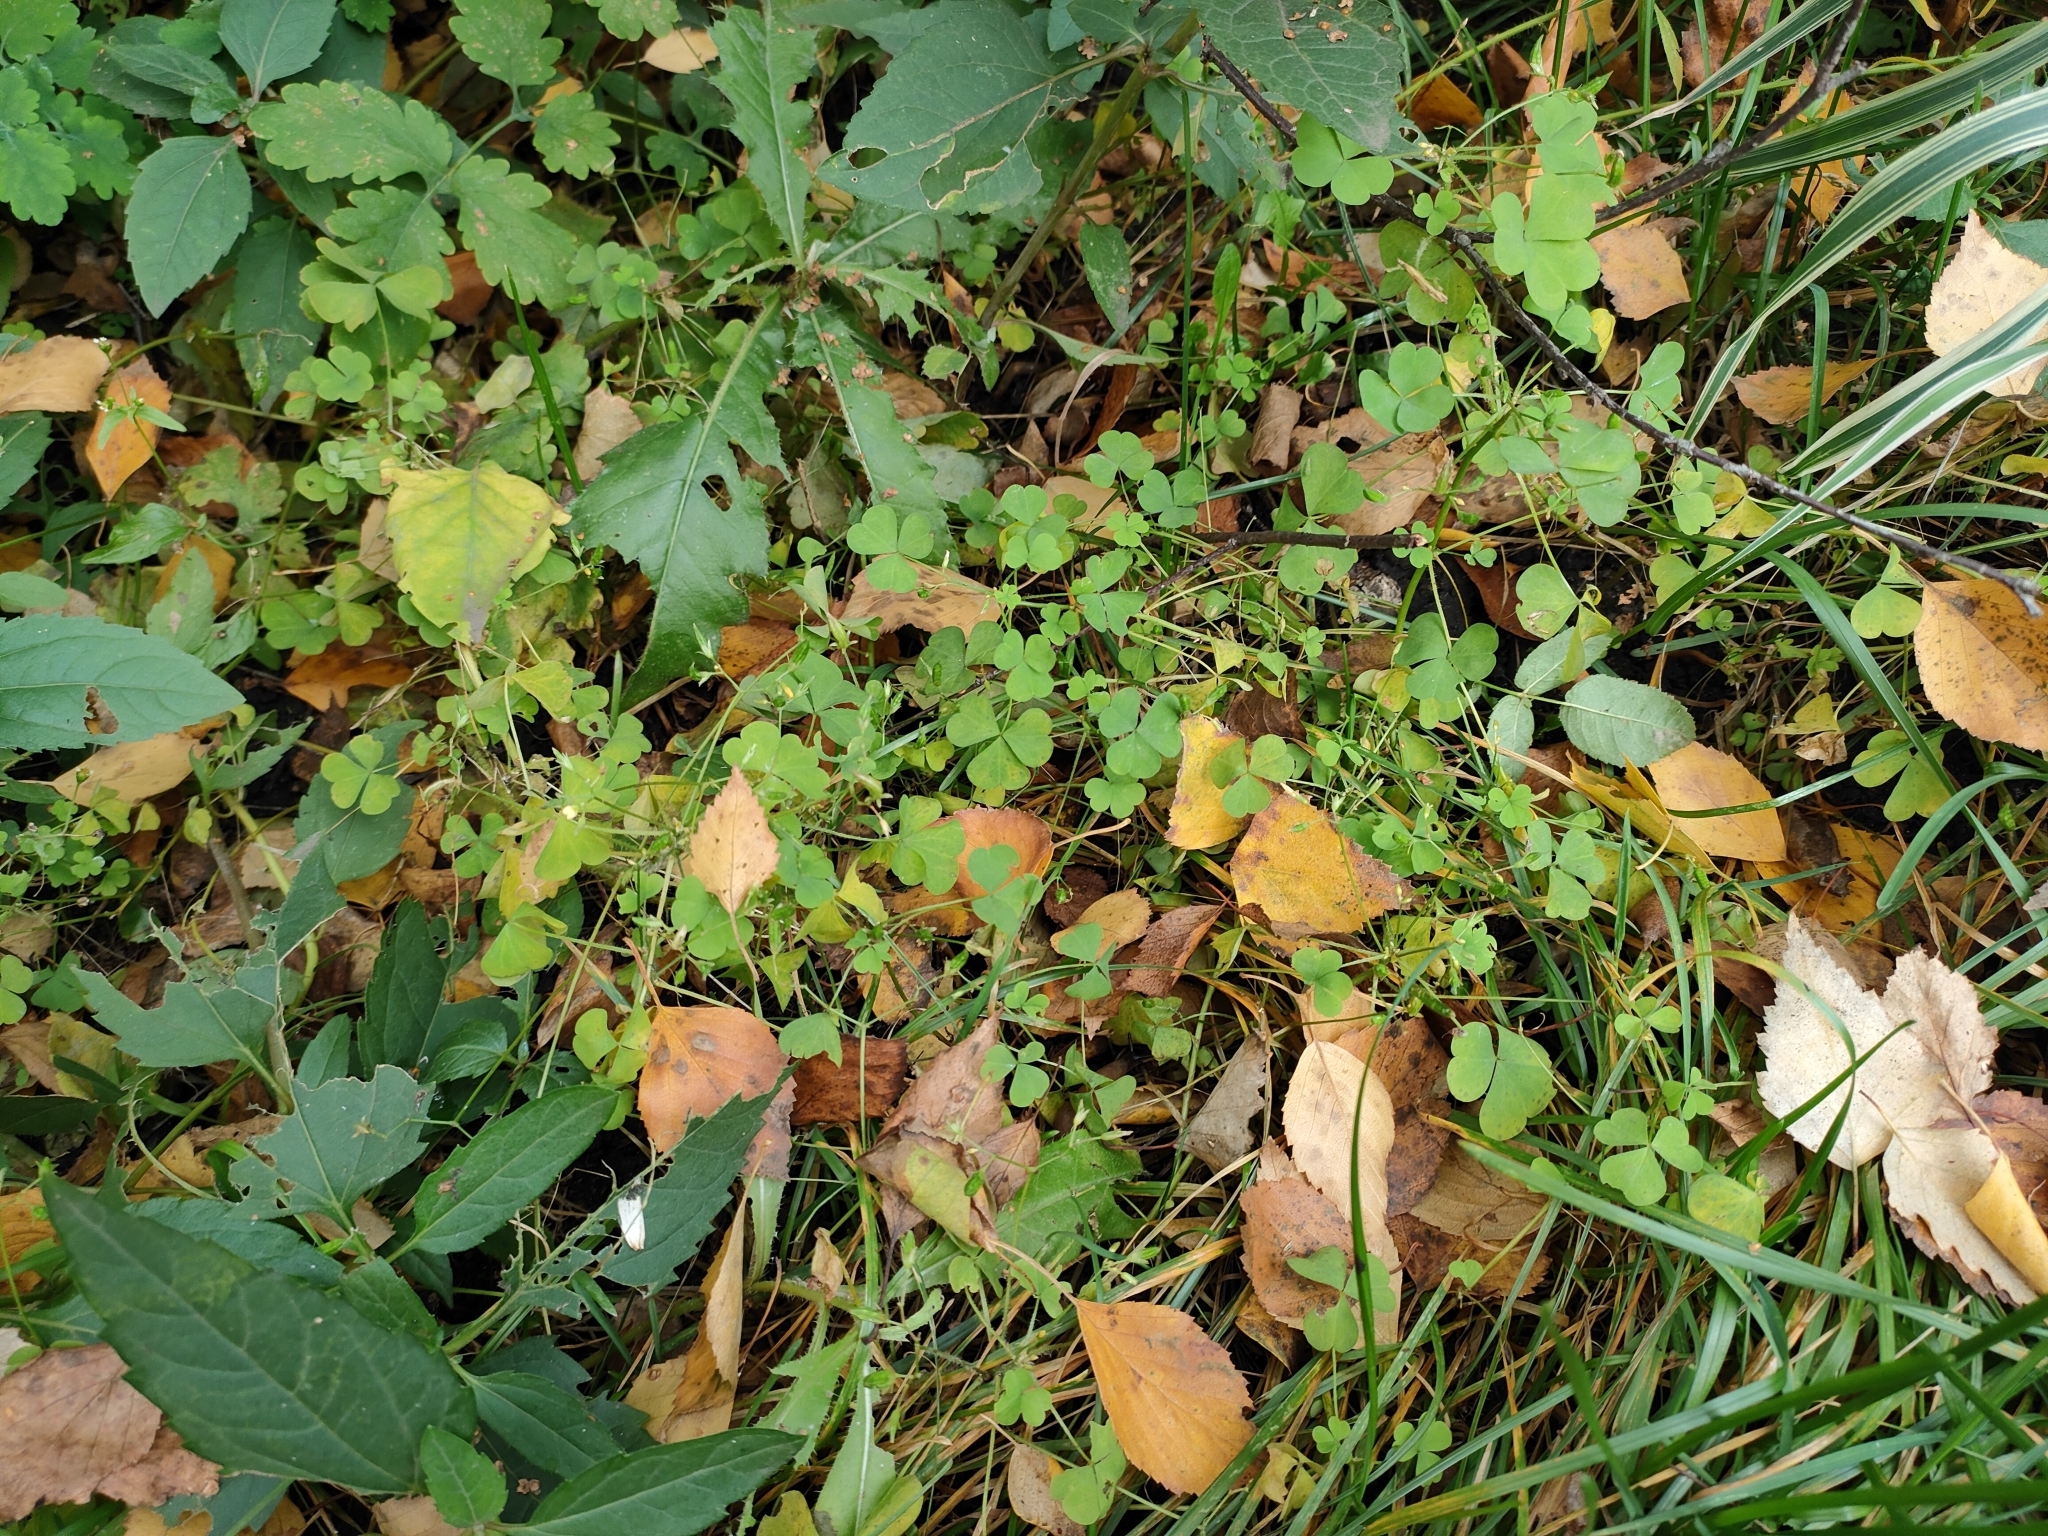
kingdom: Plantae
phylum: Tracheophyta
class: Magnoliopsida
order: Oxalidales
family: Oxalidaceae
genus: Oxalis
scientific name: Oxalis stricta
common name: Upright yellow-sorrel
